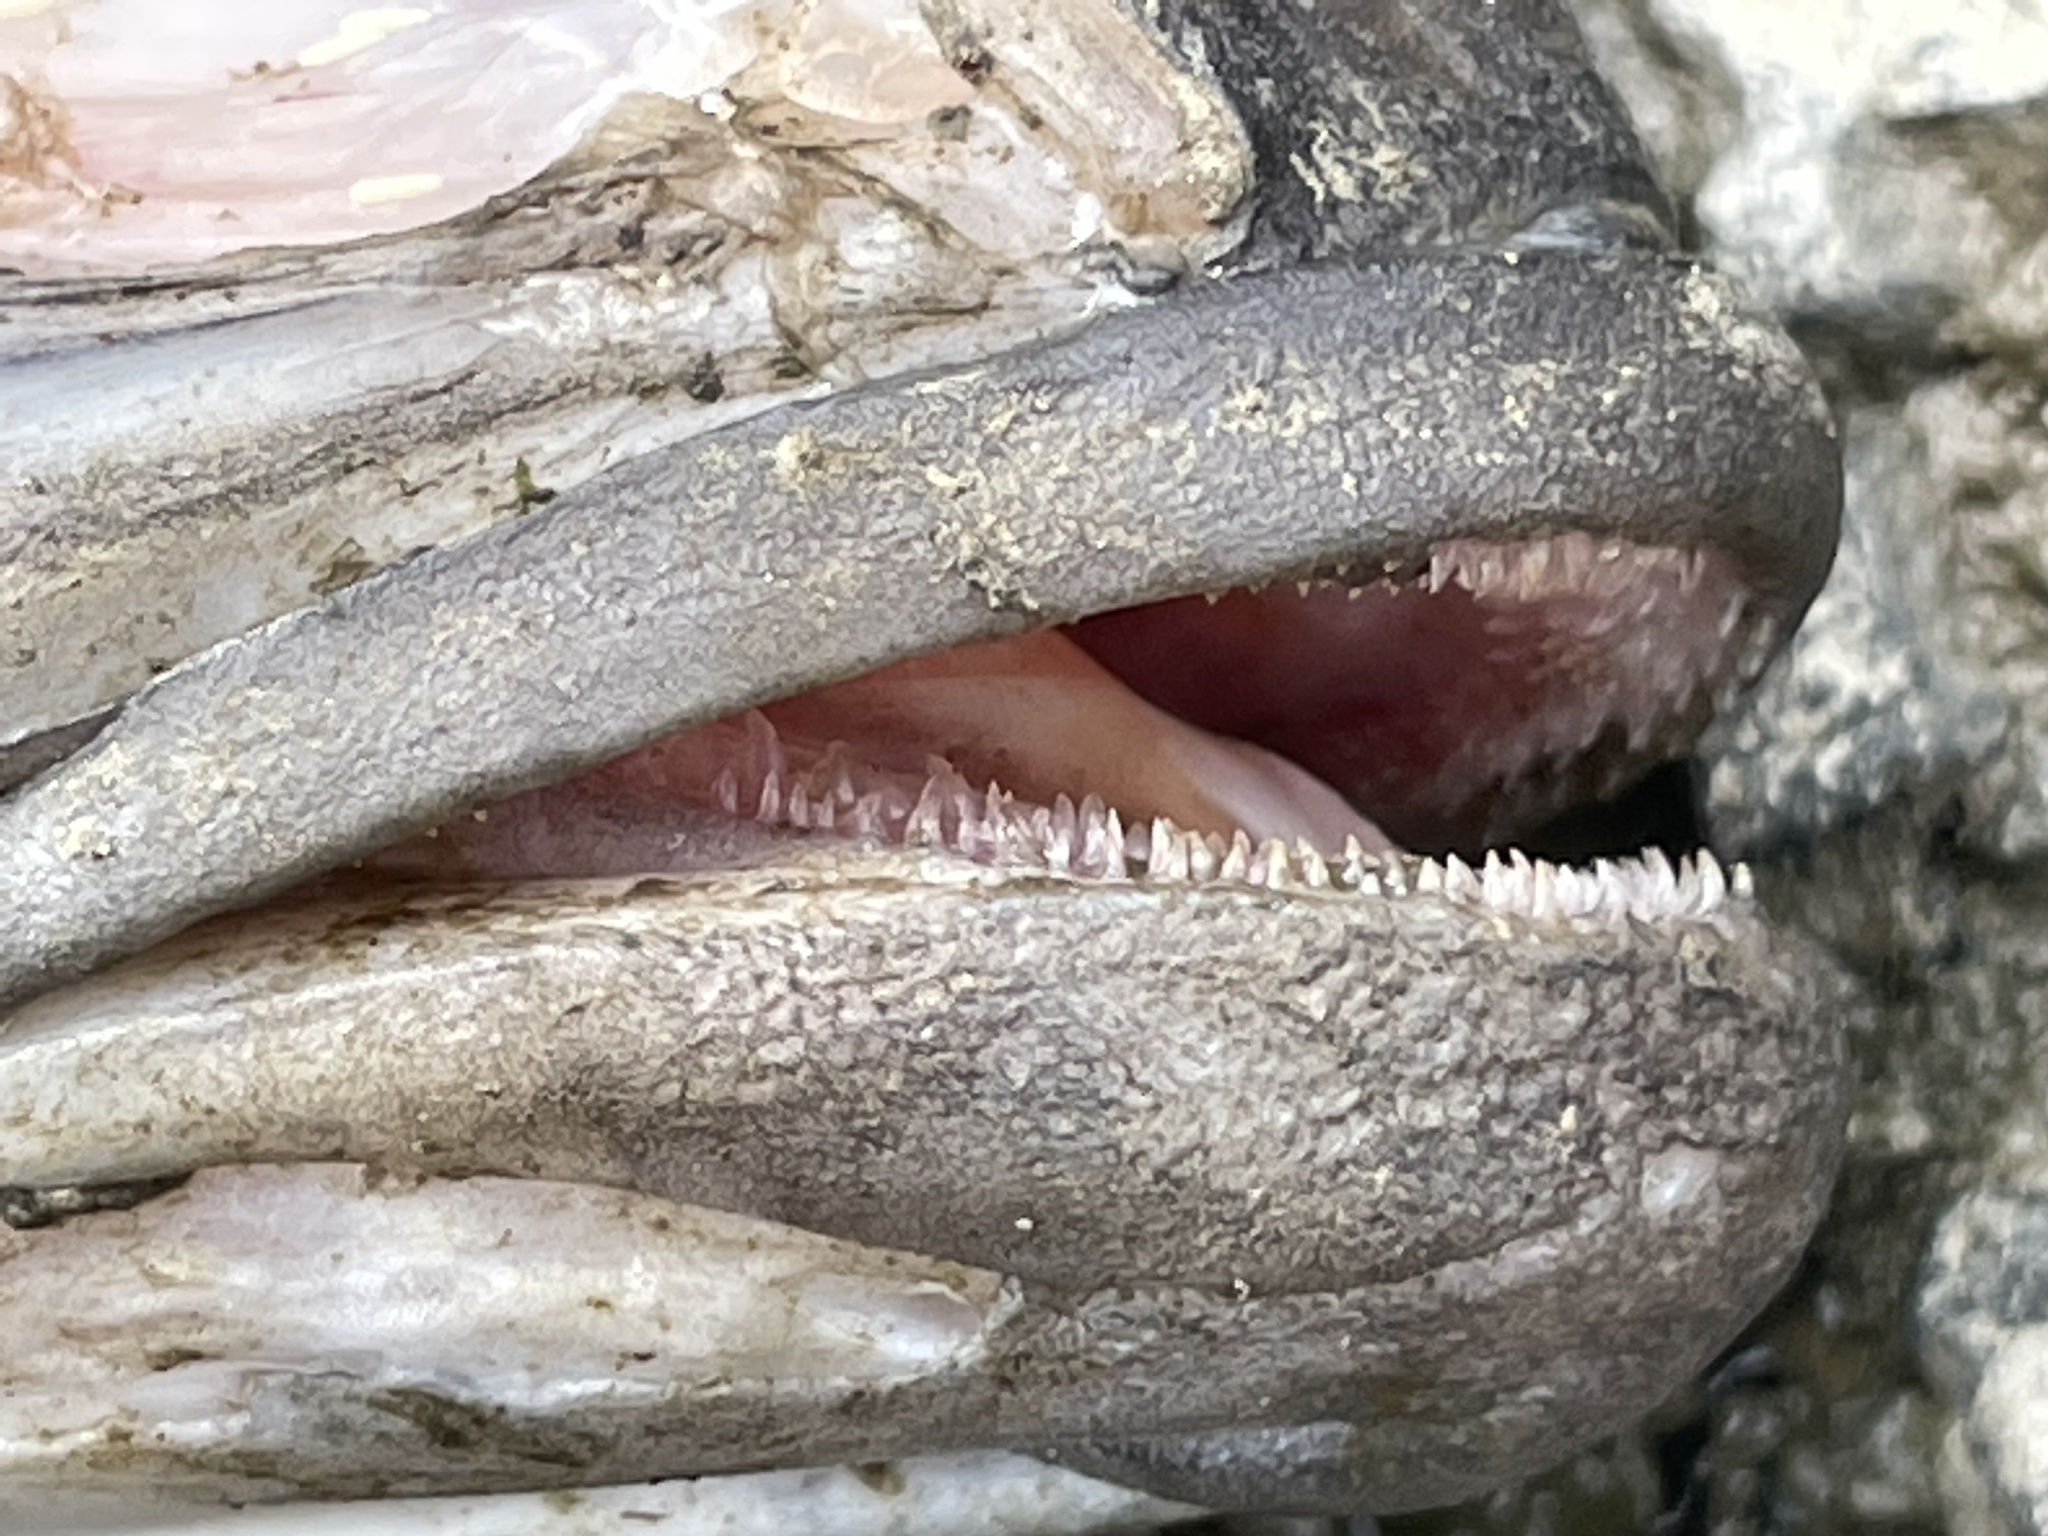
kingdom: Animalia
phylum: Chordata
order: Perciformes
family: Serranidae
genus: Centropristis
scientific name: Centropristis striata
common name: Black sea bass
